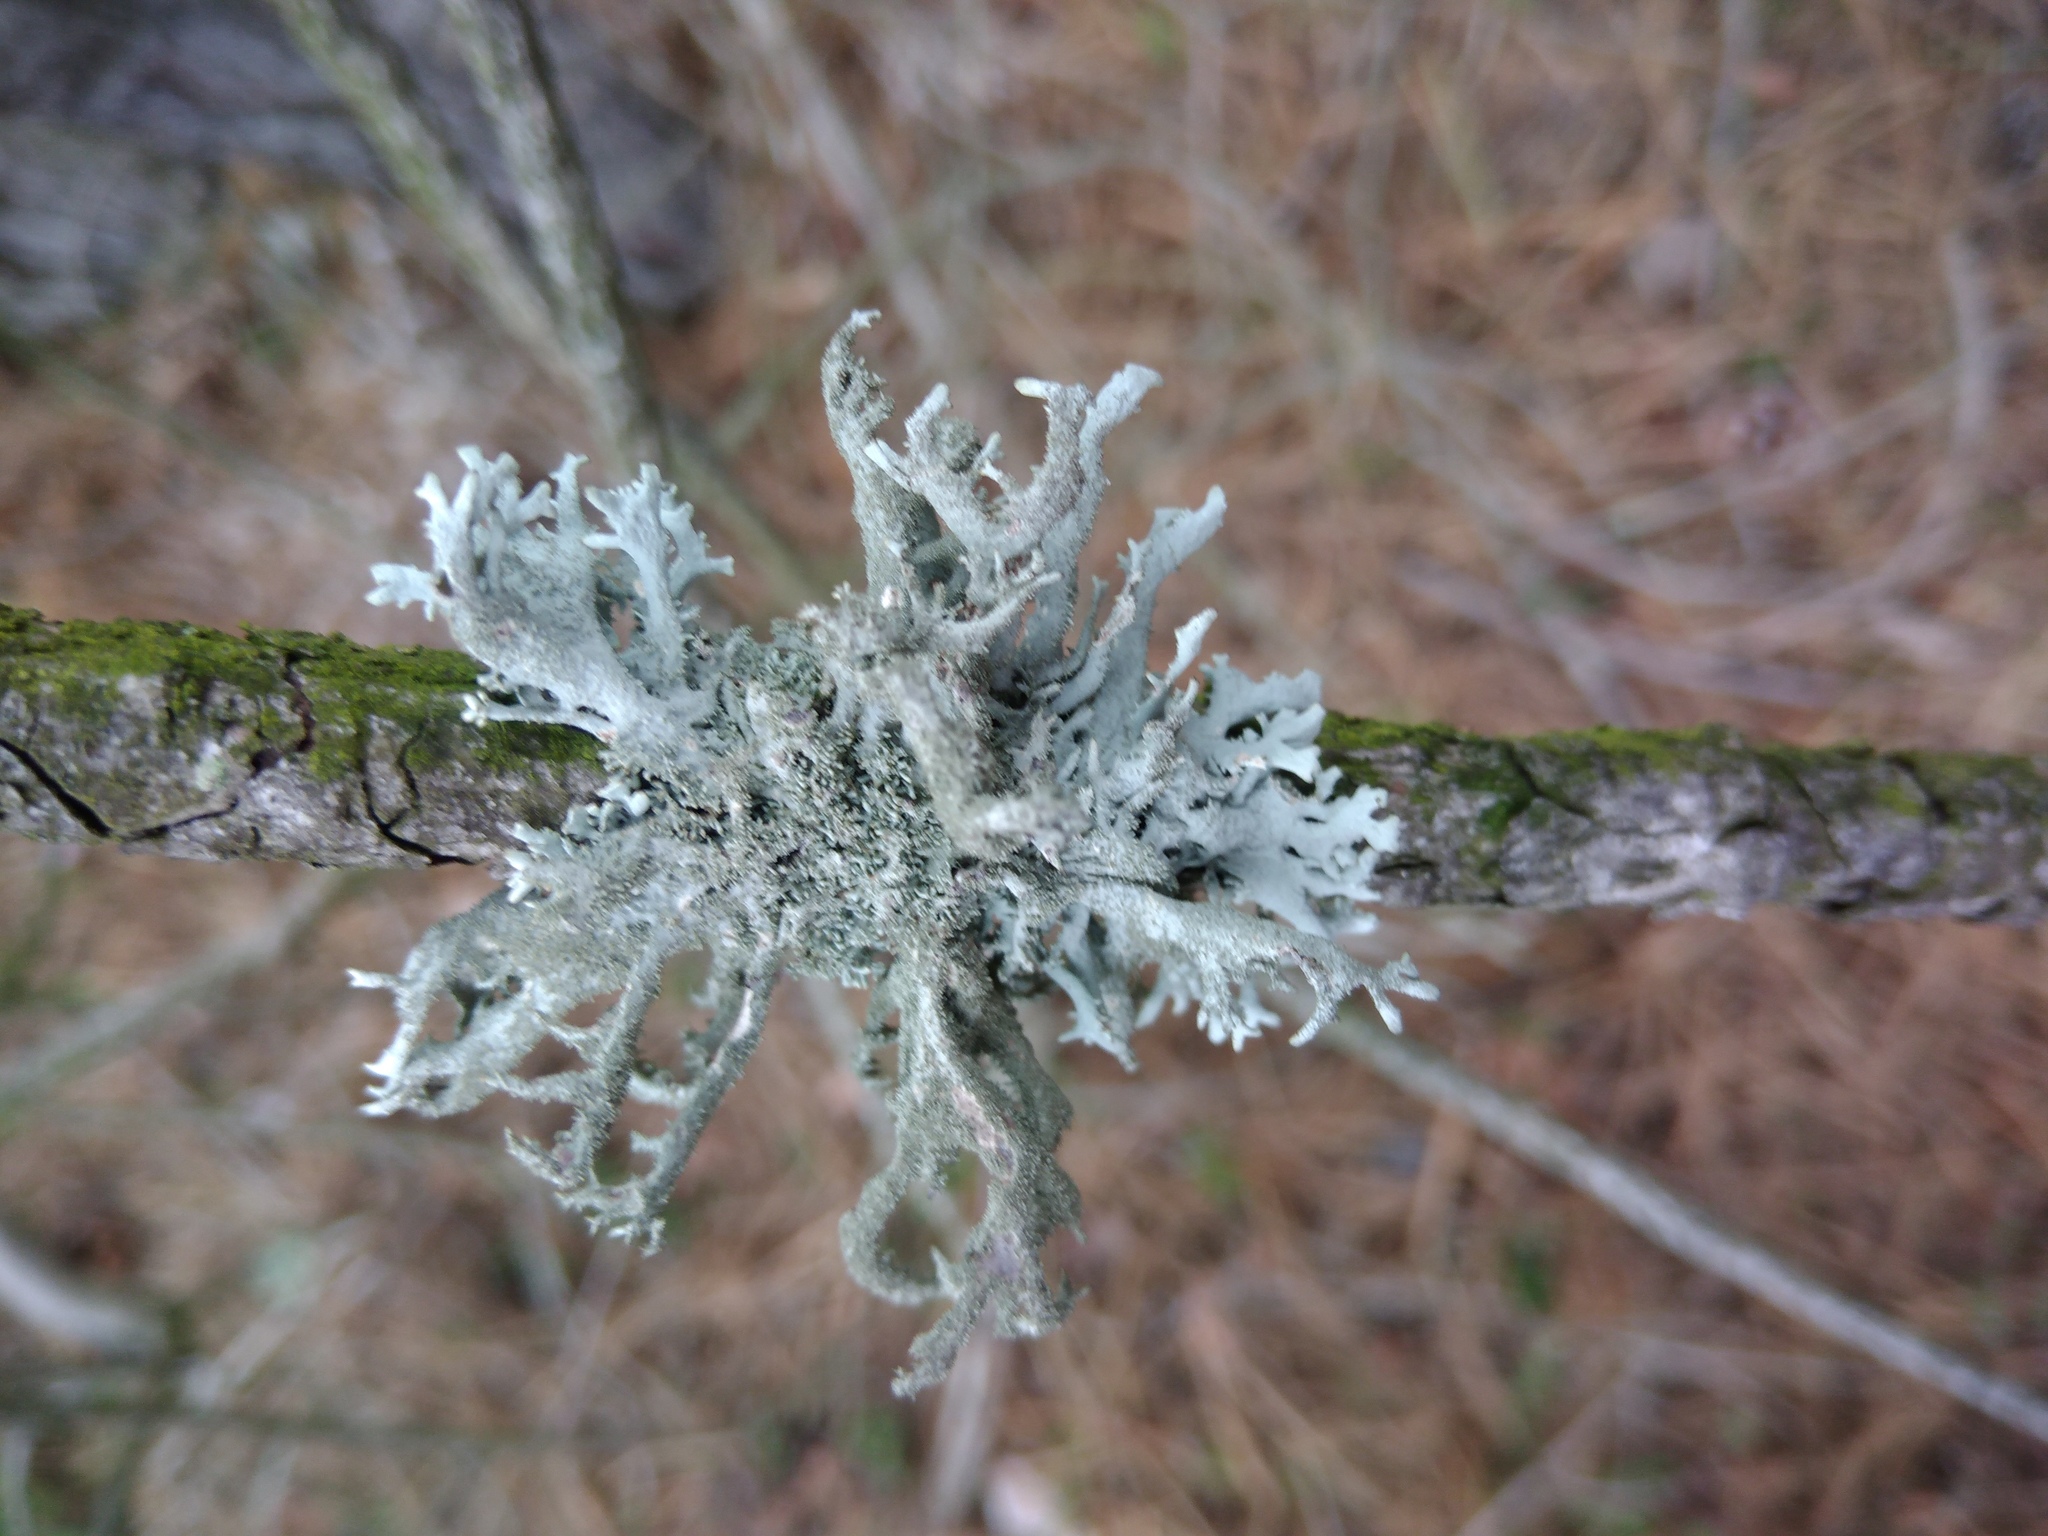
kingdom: Fungi
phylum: Ascomycota
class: Lecanoromycetes
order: Lecanorales
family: Parmeliaceae
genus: Pseudevernia
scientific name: Pseudevernia furfuracea
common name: Tree moss
